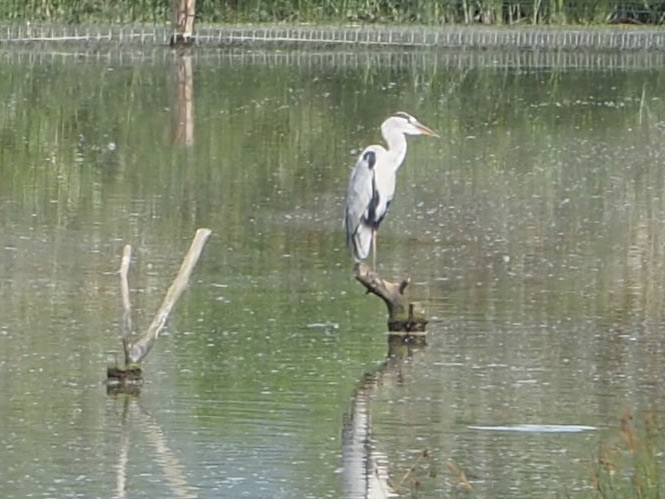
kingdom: Animalia
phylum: Chordata
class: Aves
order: Pelecaniformes
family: Ardeidae
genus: Ardea
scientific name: Ardea cinerea
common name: Grey heron
